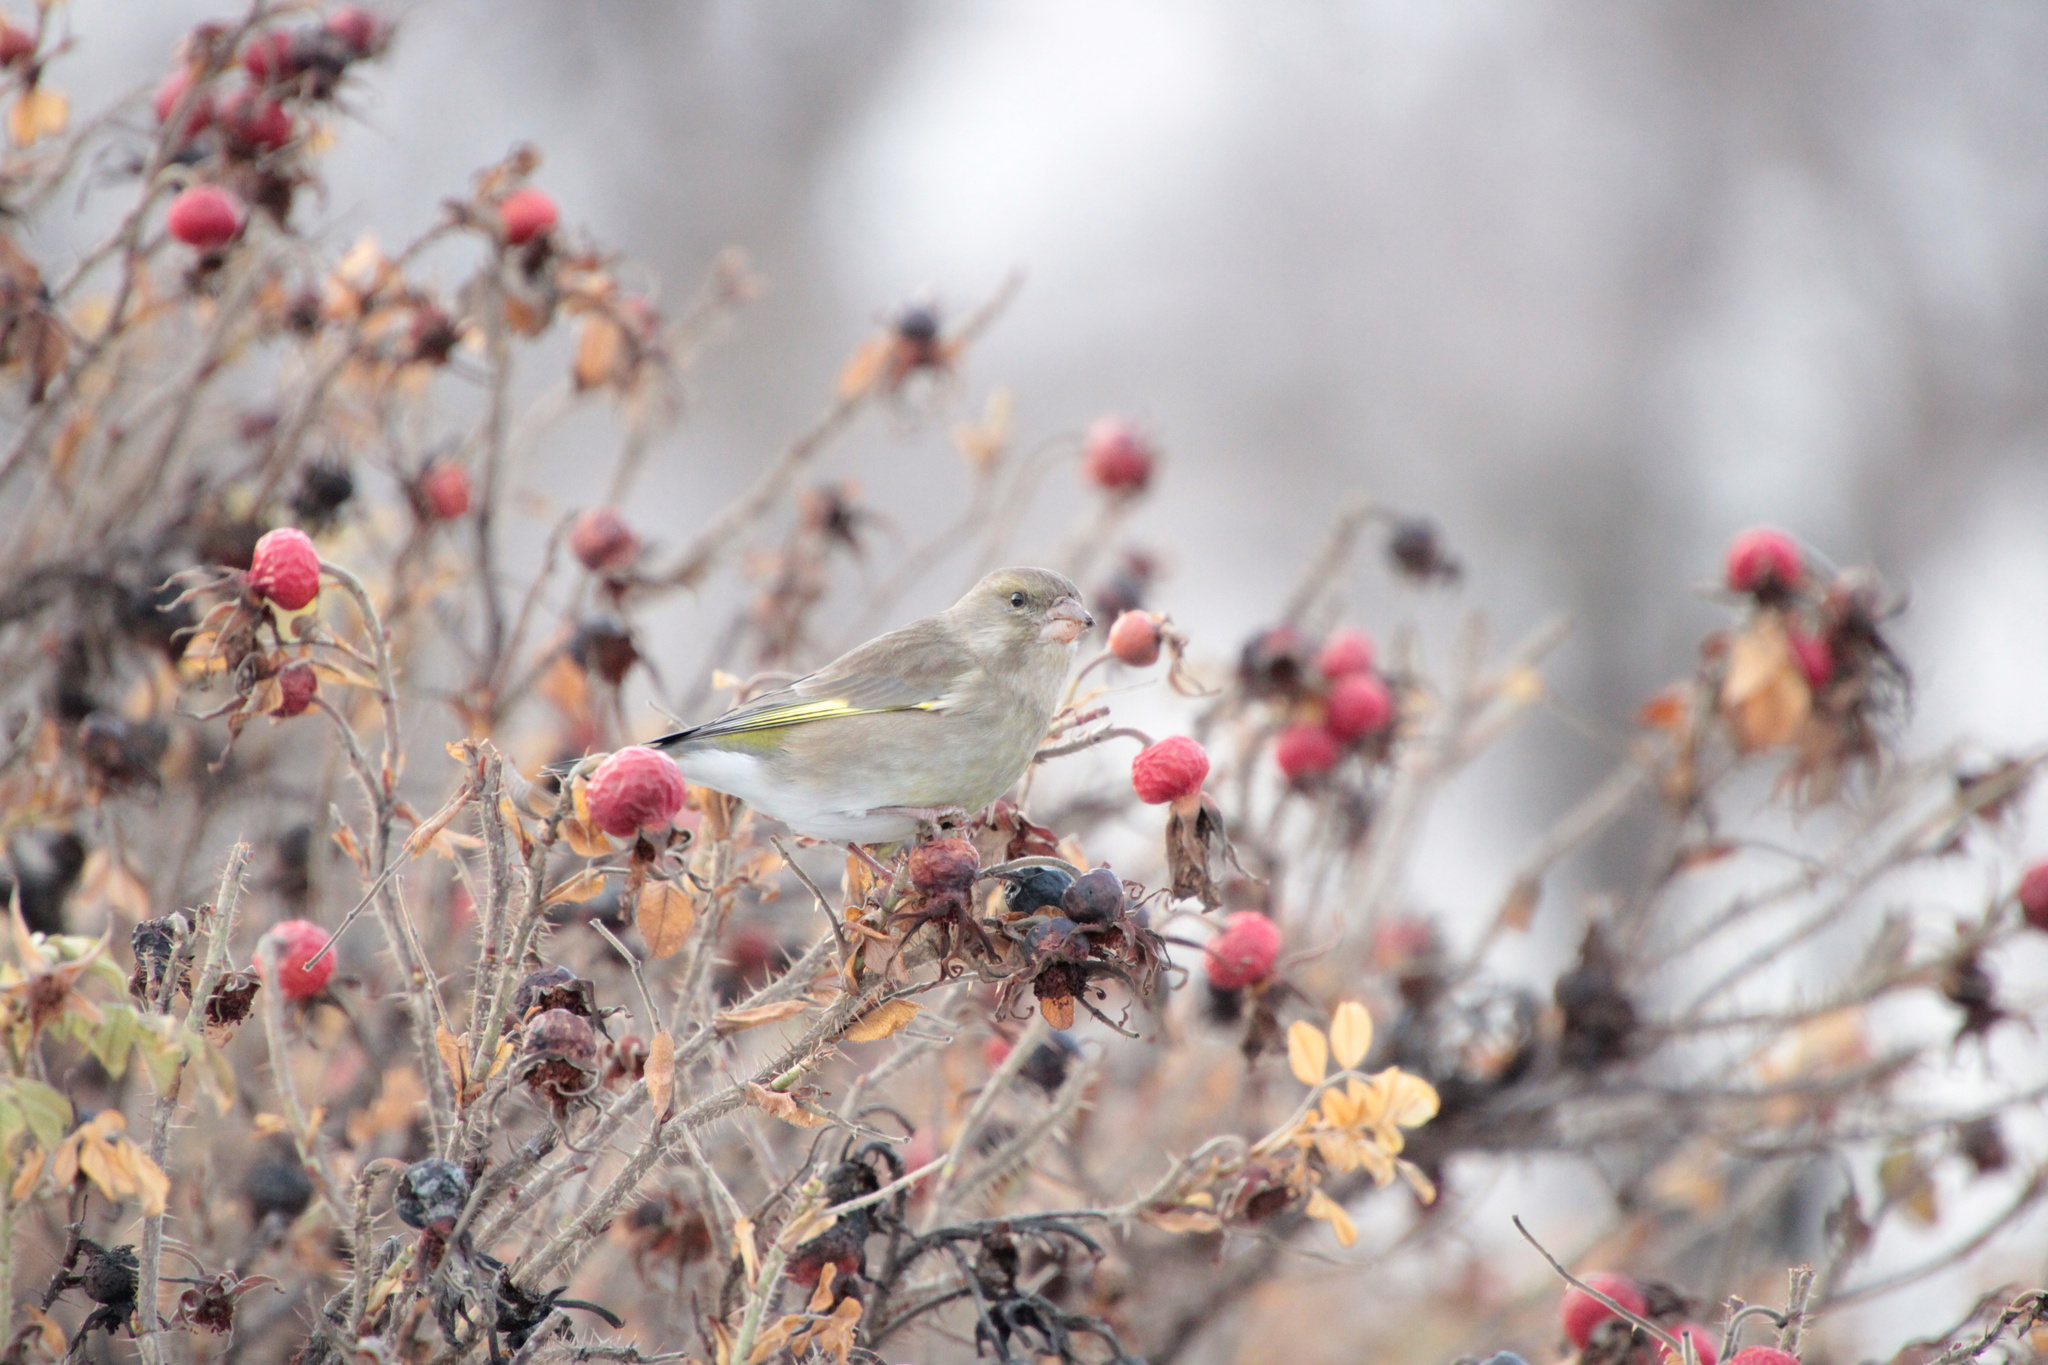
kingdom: Plantae
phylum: Tracheophyta
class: Liliopsida
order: Poales
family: Poaceae
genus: Chloris
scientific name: Chloris chloris
